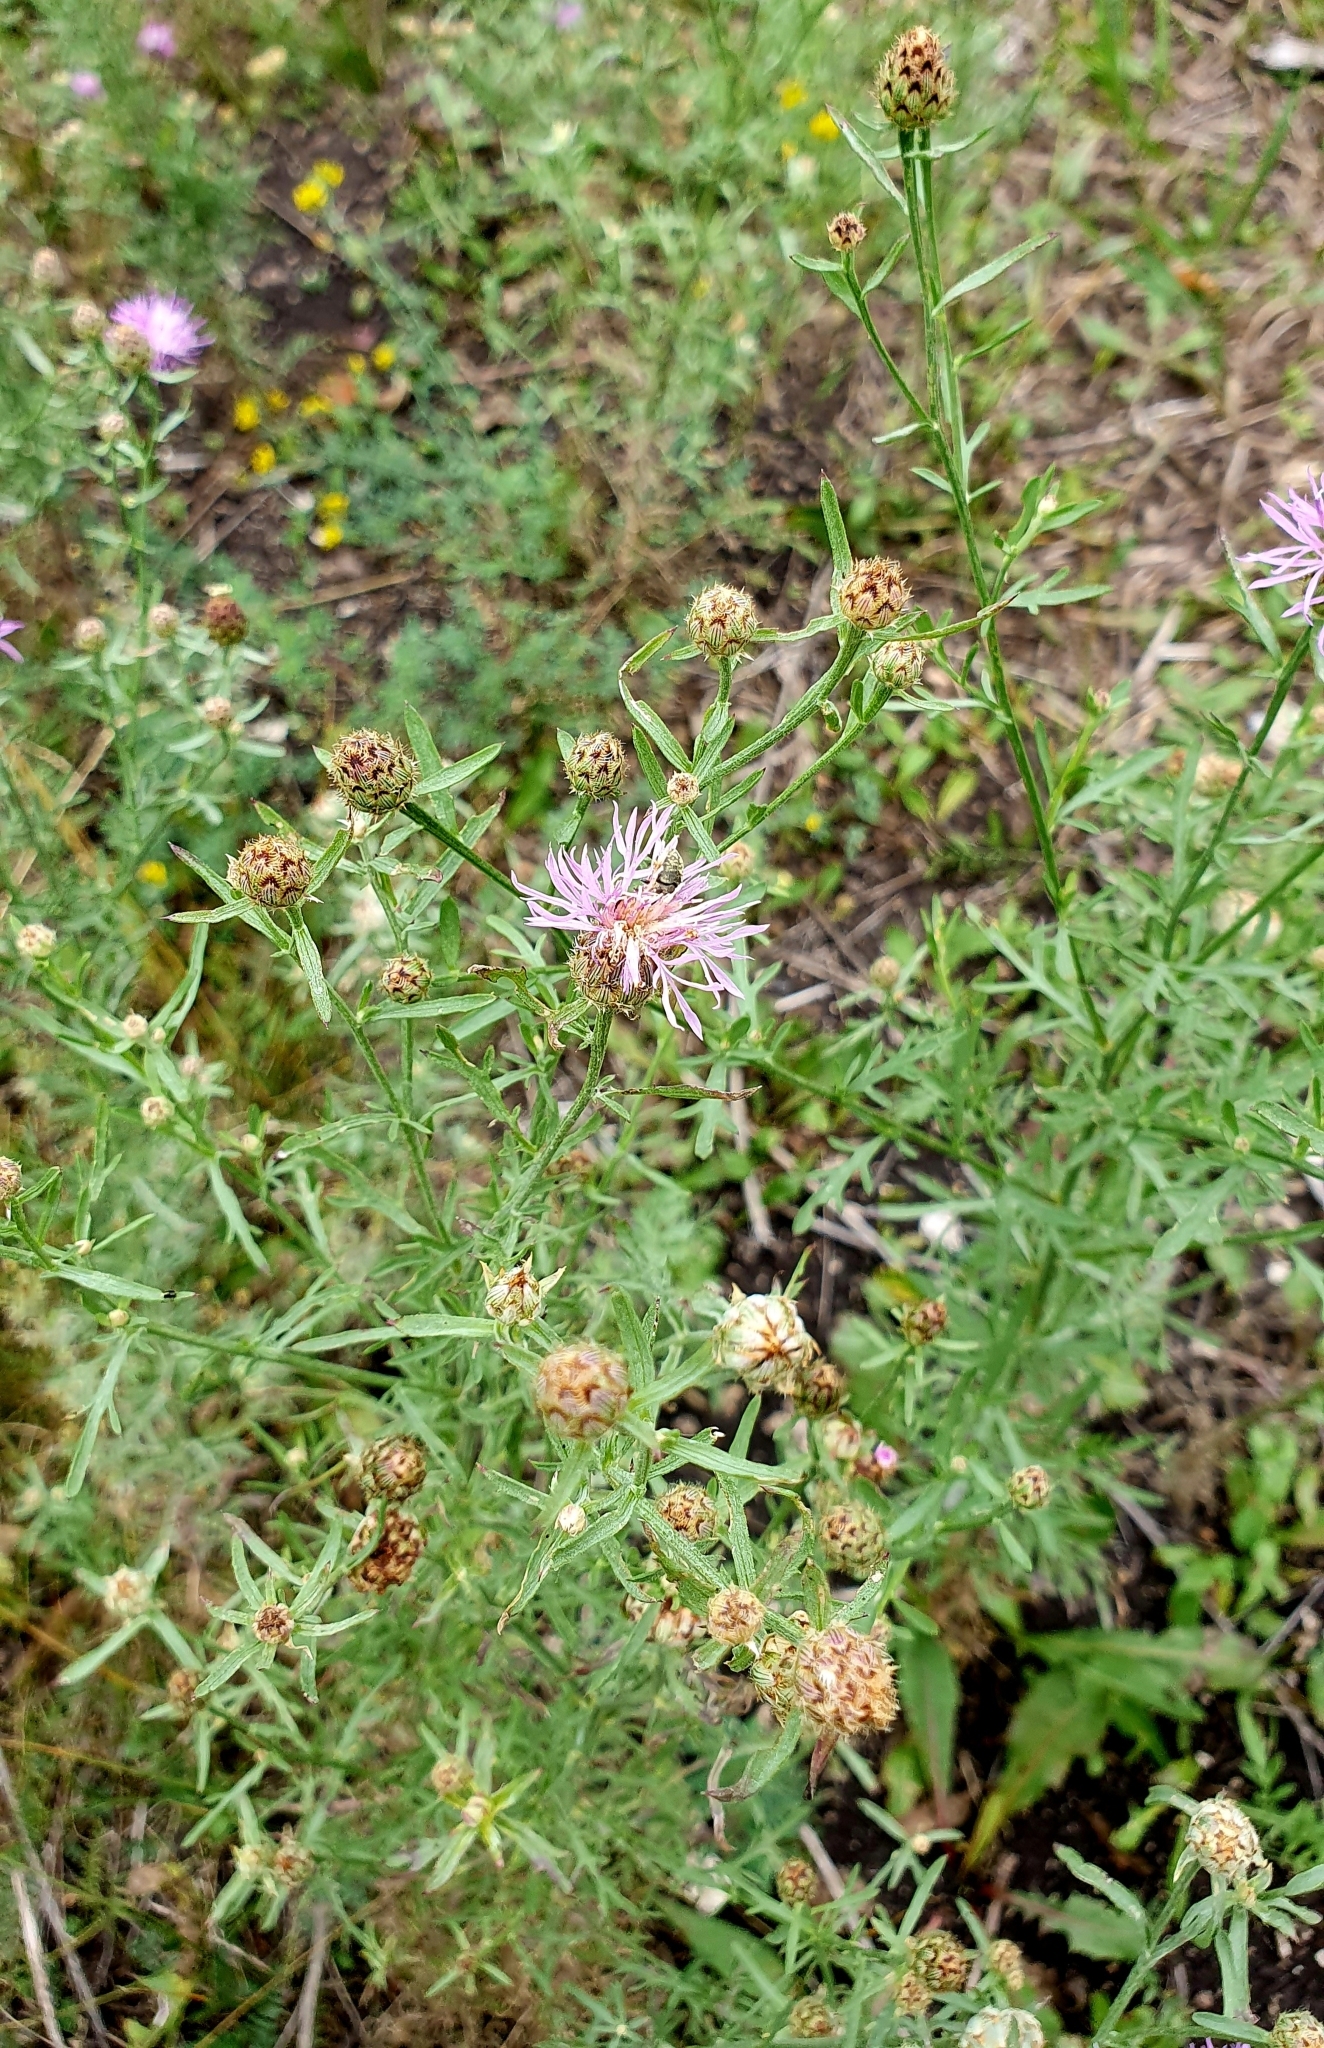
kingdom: Plantae
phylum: Tracheophyta
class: Magnoliopsida
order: Asterales
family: Asteraceae
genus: Centaurea
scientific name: Centaurea stoebe
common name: Spotted knapweed
